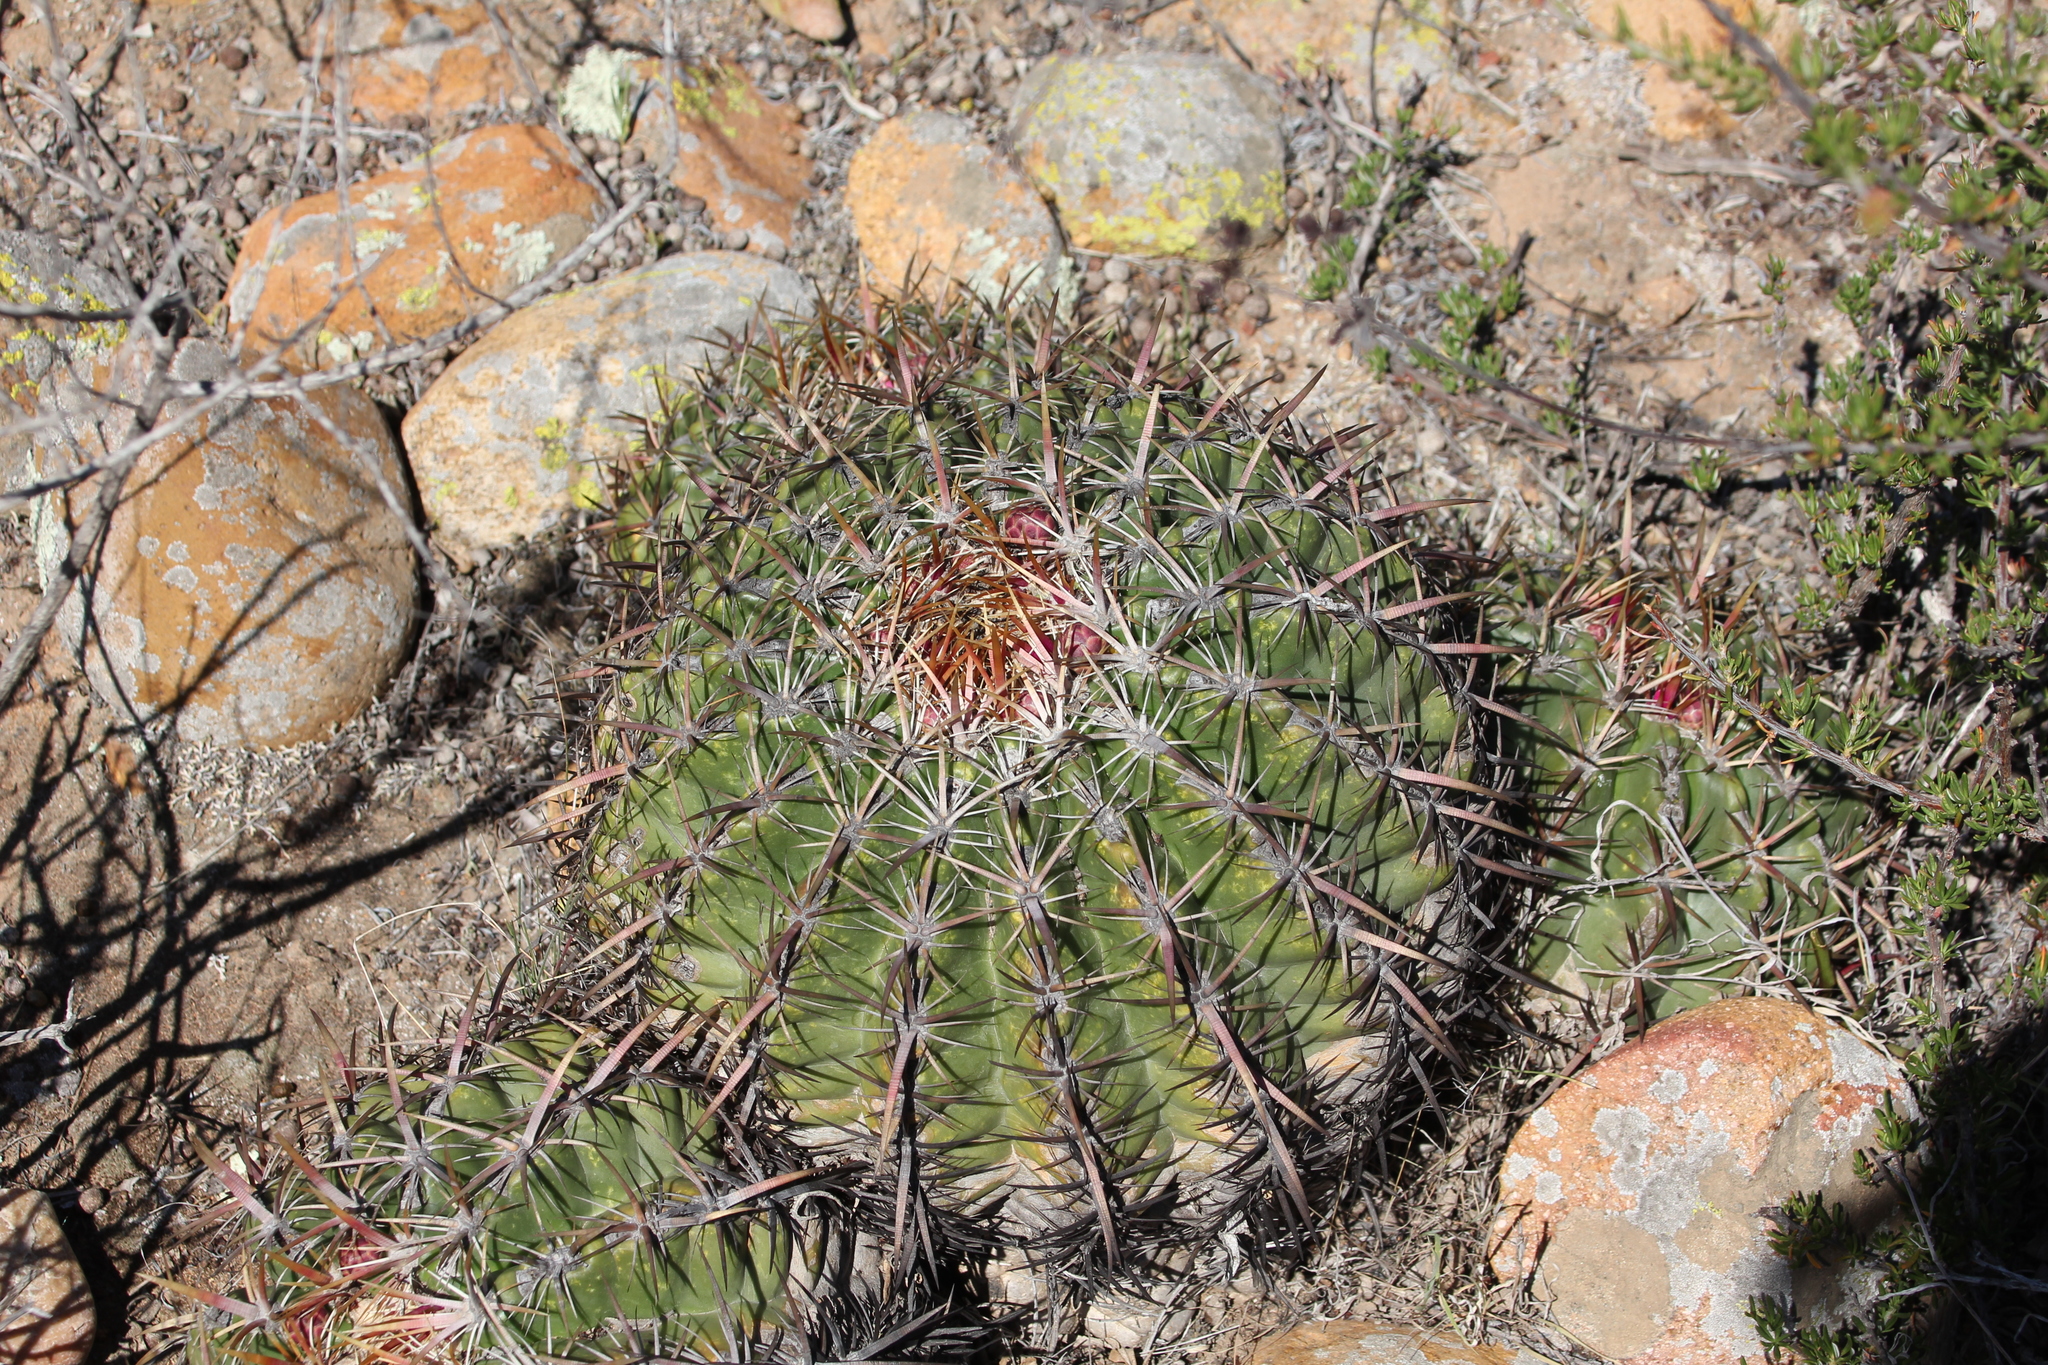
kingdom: Plantae
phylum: Tracheophyta
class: Magnoliopsida
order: Caryophyllales
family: Cactaceae
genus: Ferocactus
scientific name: Ferocactus viridescens
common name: San diego barrel cactus
